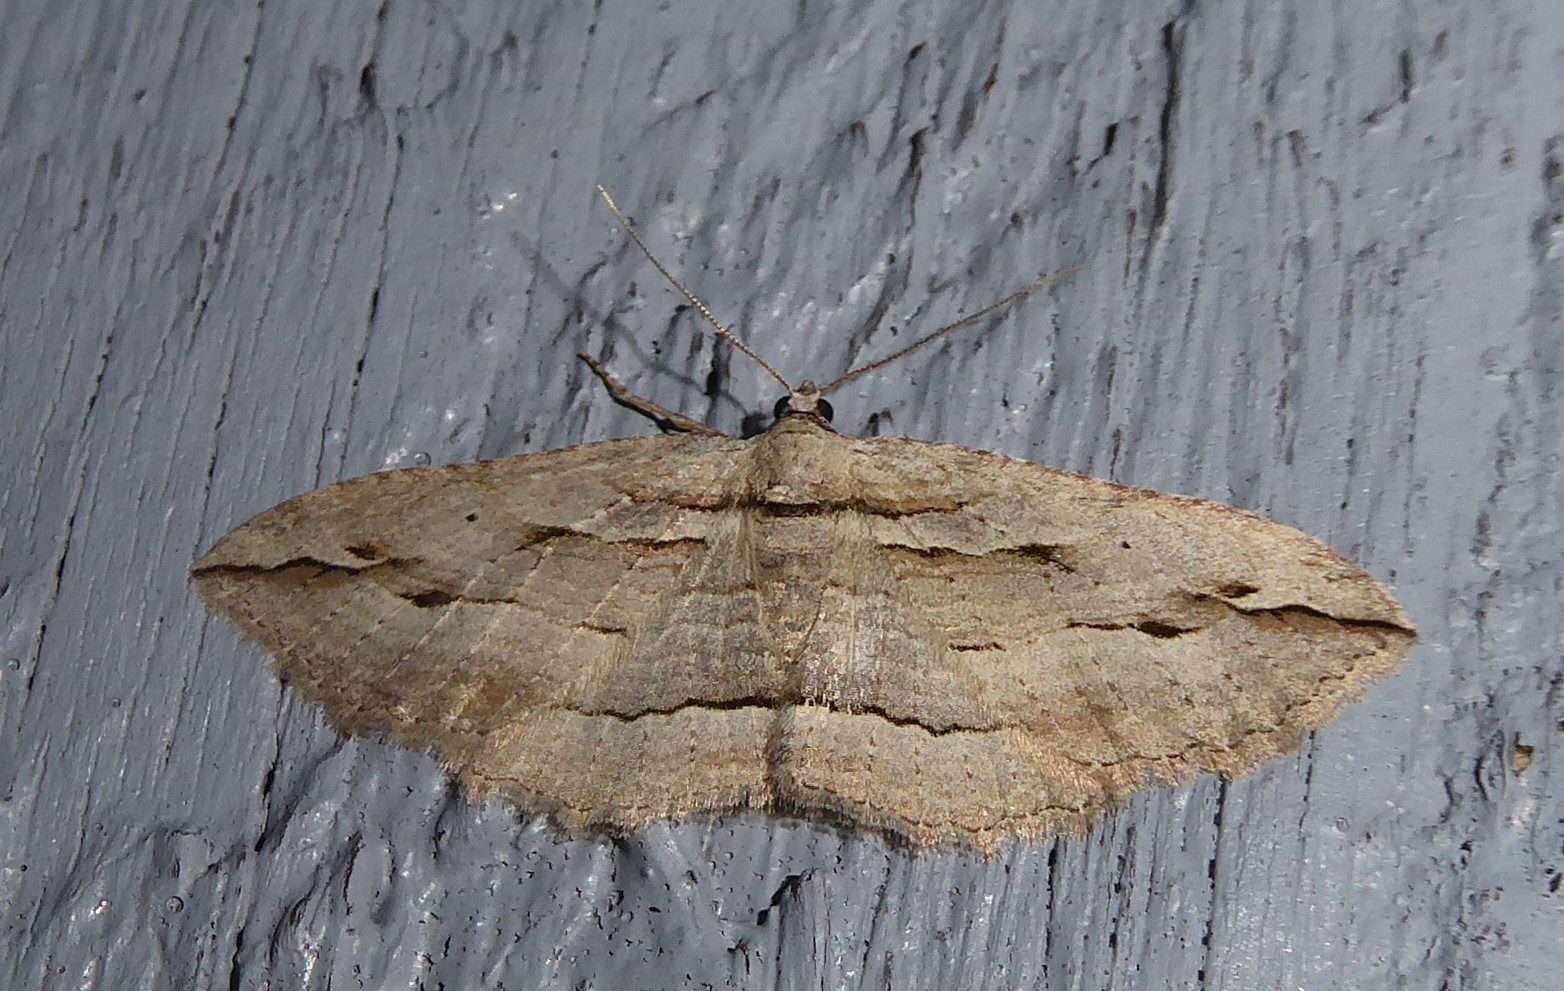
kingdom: Animalia
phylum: Arthropoda
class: Insecta
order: Lepidoptera
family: Geometridae
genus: Austrocidaria
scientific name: Austrocidaria gobiata
